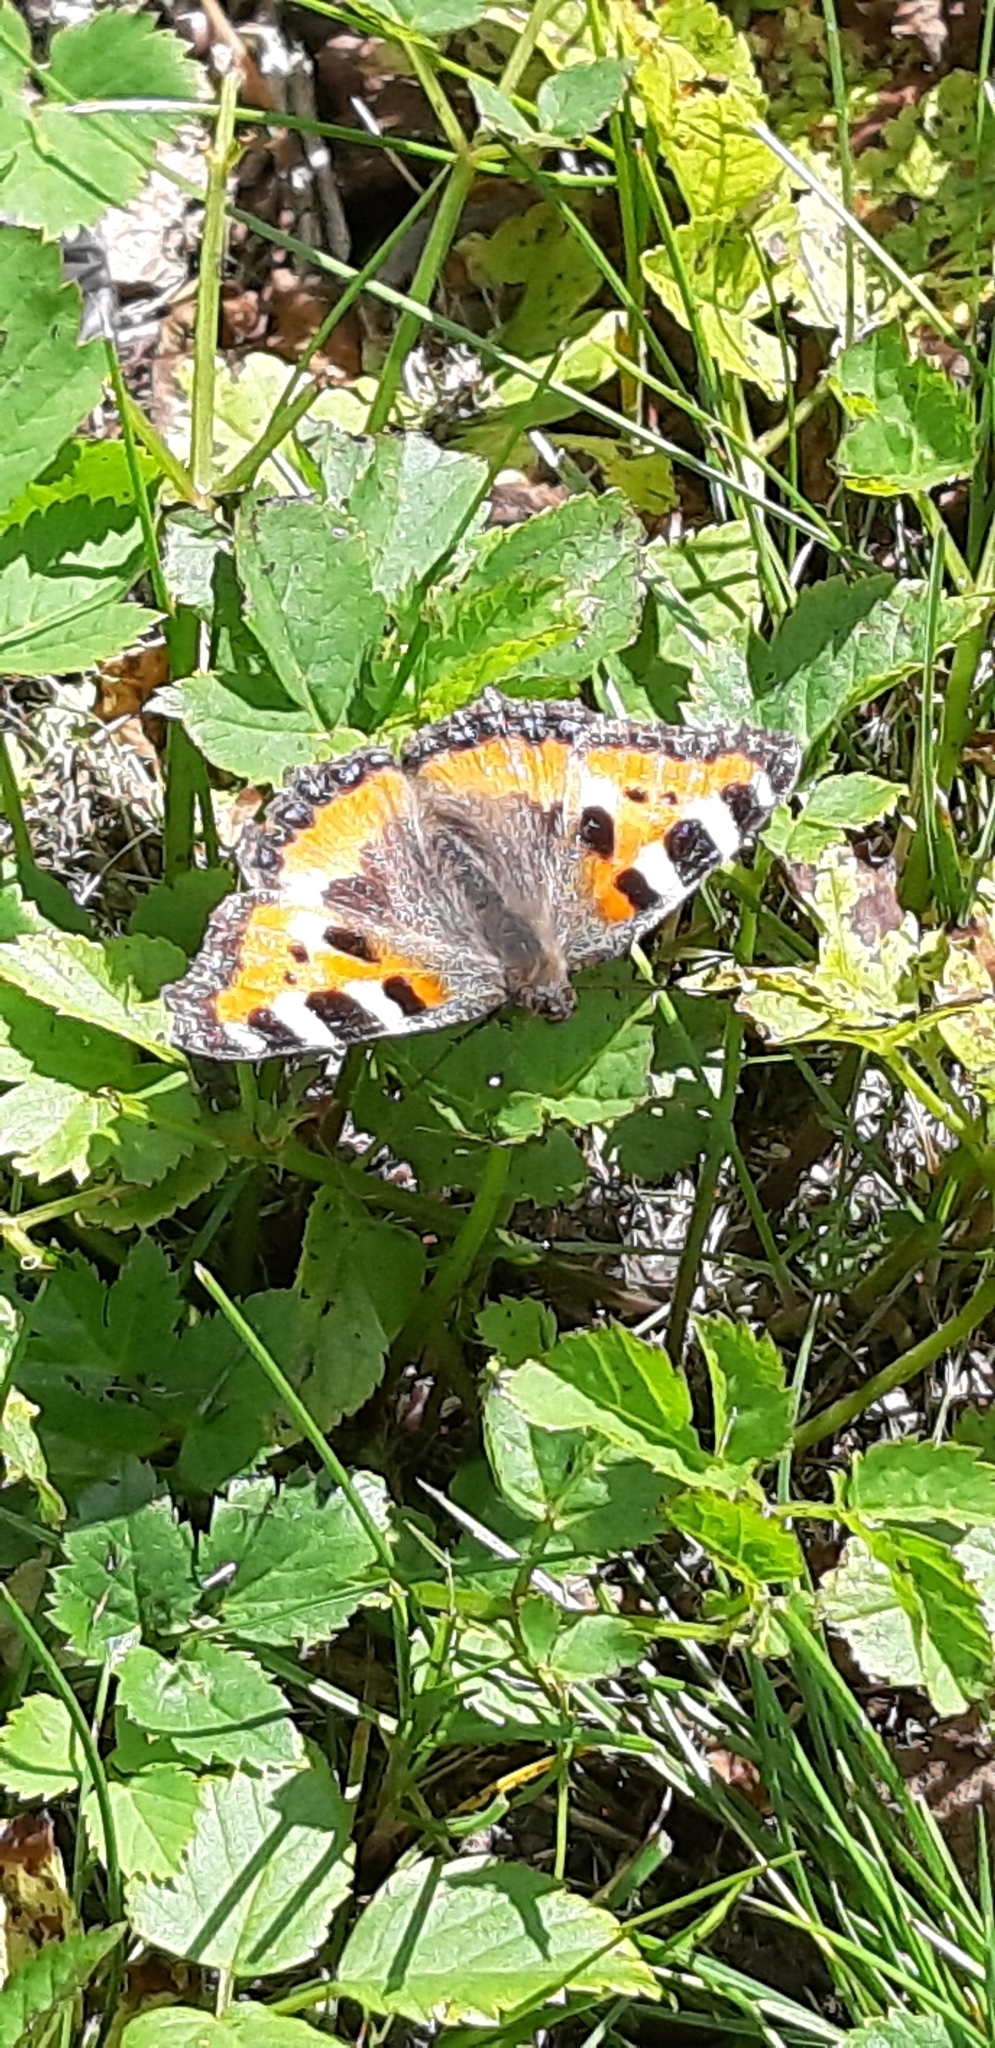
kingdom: Animalia
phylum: Arthropoda
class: Insecta
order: Lepidoptera
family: Nymphalidae
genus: Aglais
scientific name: Aglais urticae
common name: Small tortoiseshell
